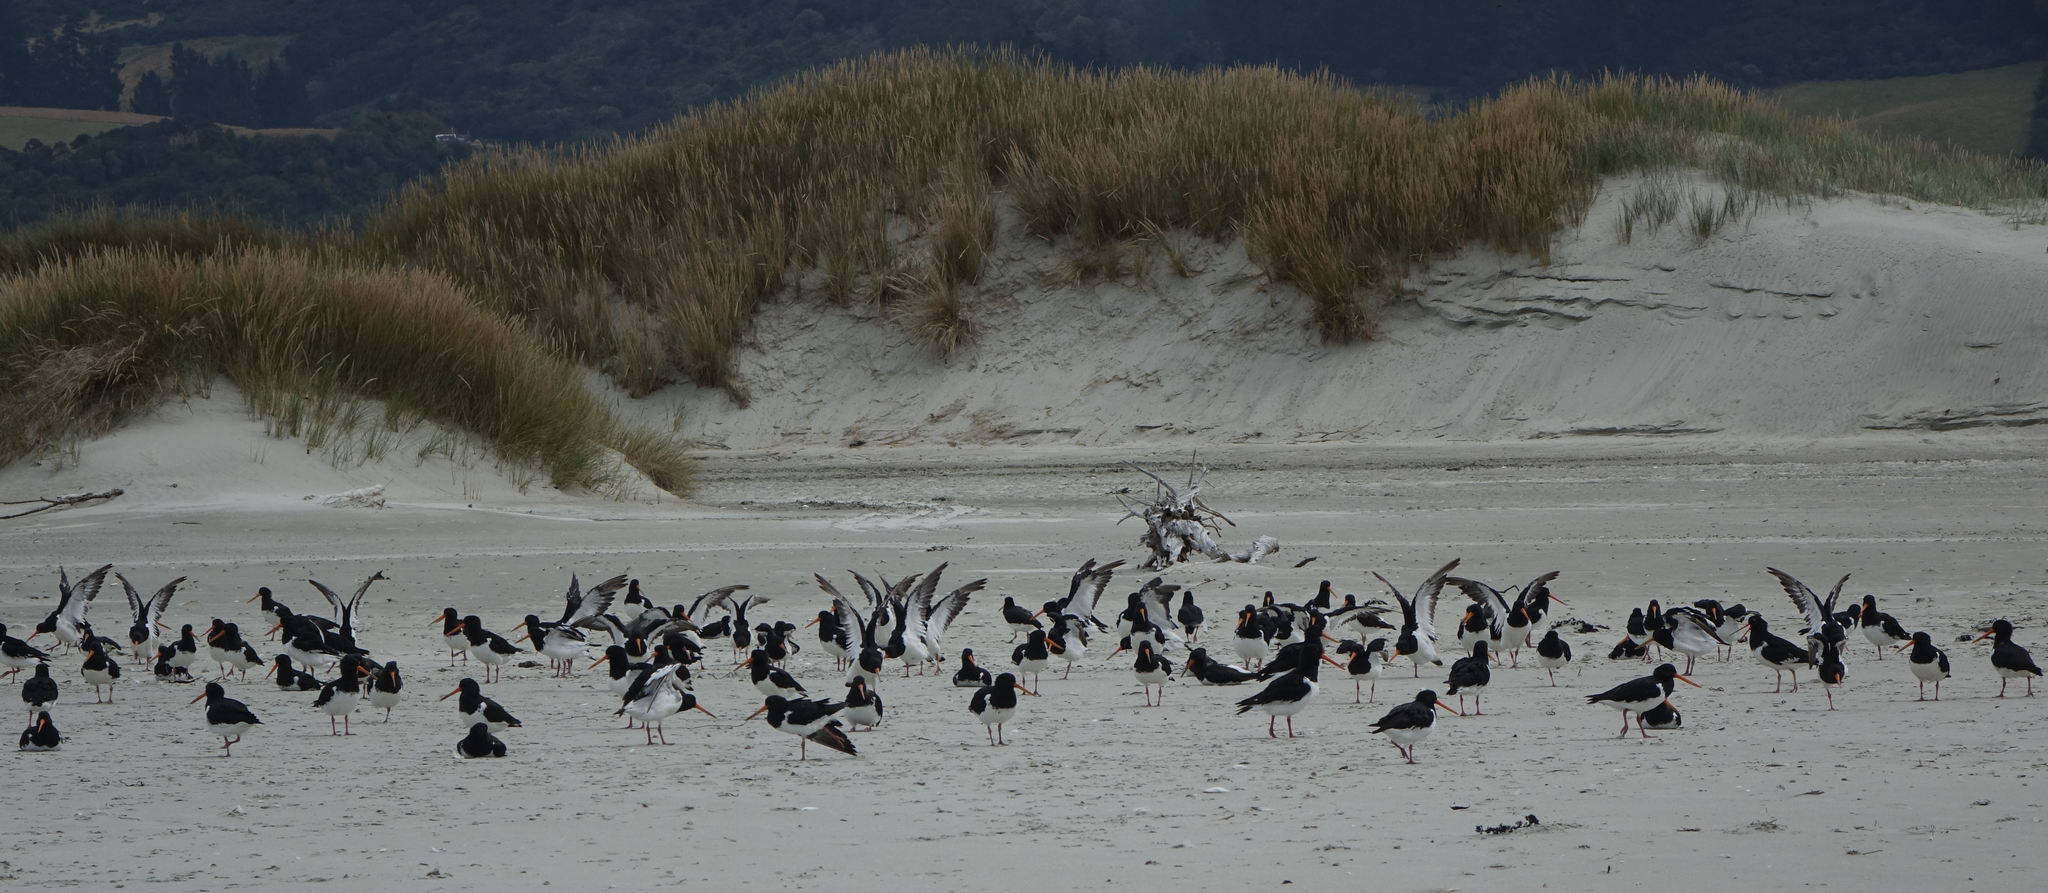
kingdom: Animalia
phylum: Chordata
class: Aves
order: Charadriiformes
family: Haematopodidae
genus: Haematopus
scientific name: Haematopus finschi
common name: South island oystercatcher
